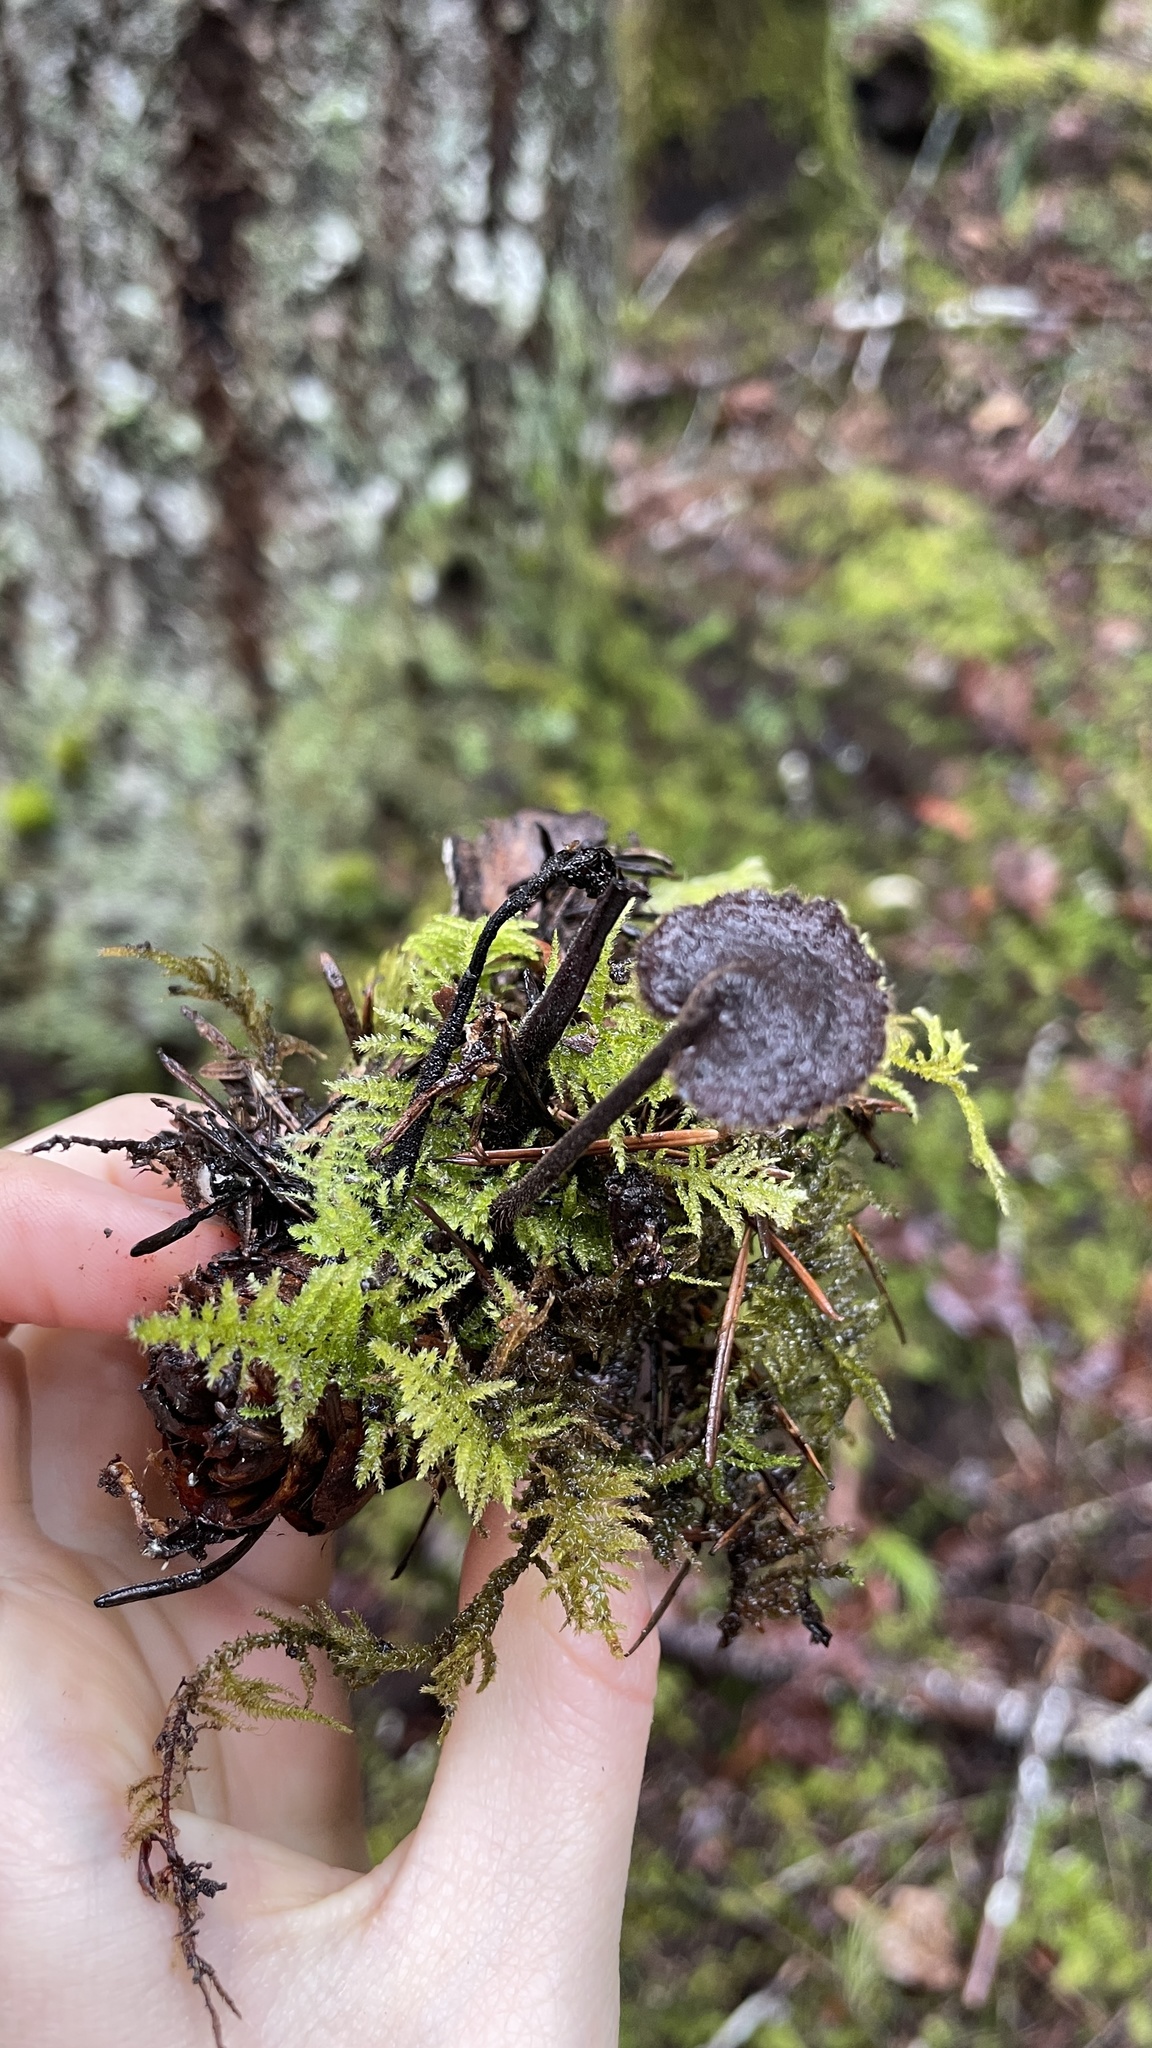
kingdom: Fungi
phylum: Basidiomycota
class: Agaricomycetes
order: Russulales
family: Auriscalpiaceae
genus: Auriscalpium
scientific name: Auriscalpium vulgare
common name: Earpick fungus
